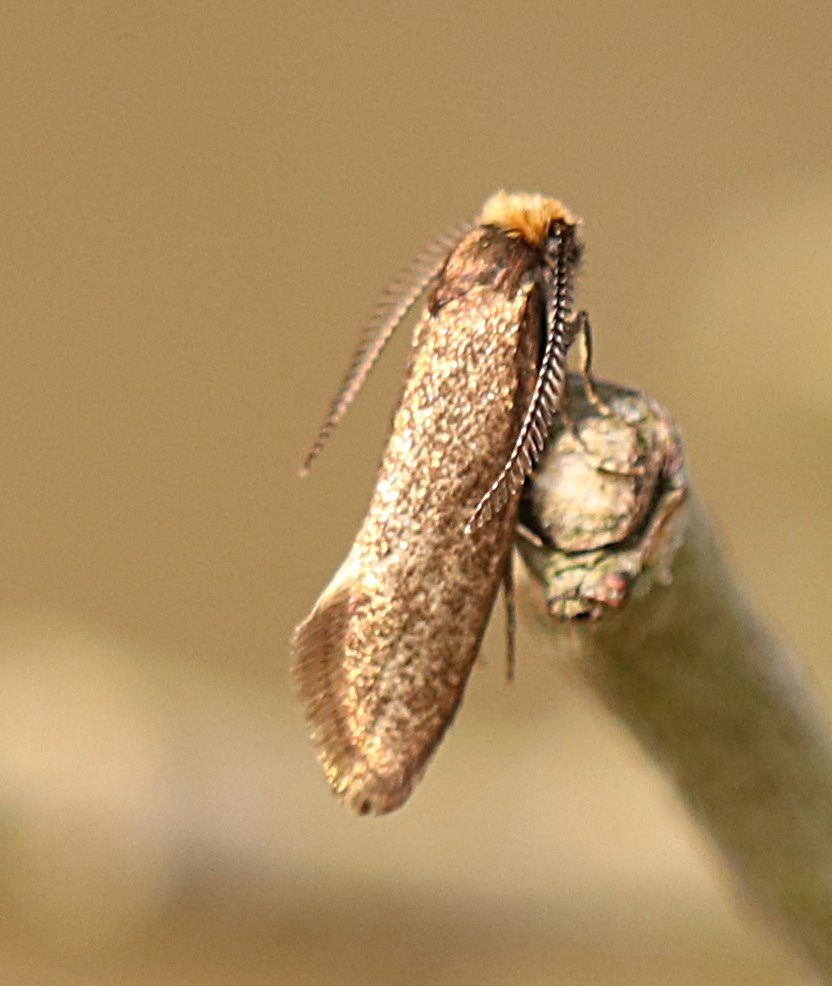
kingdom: Animalia
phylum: Arthropoda
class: Insecta
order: Lepidoptera
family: Incurvariidae
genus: Incurvaria
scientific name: Incurvaria pectinea
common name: Pale feathered leaf-cutter
